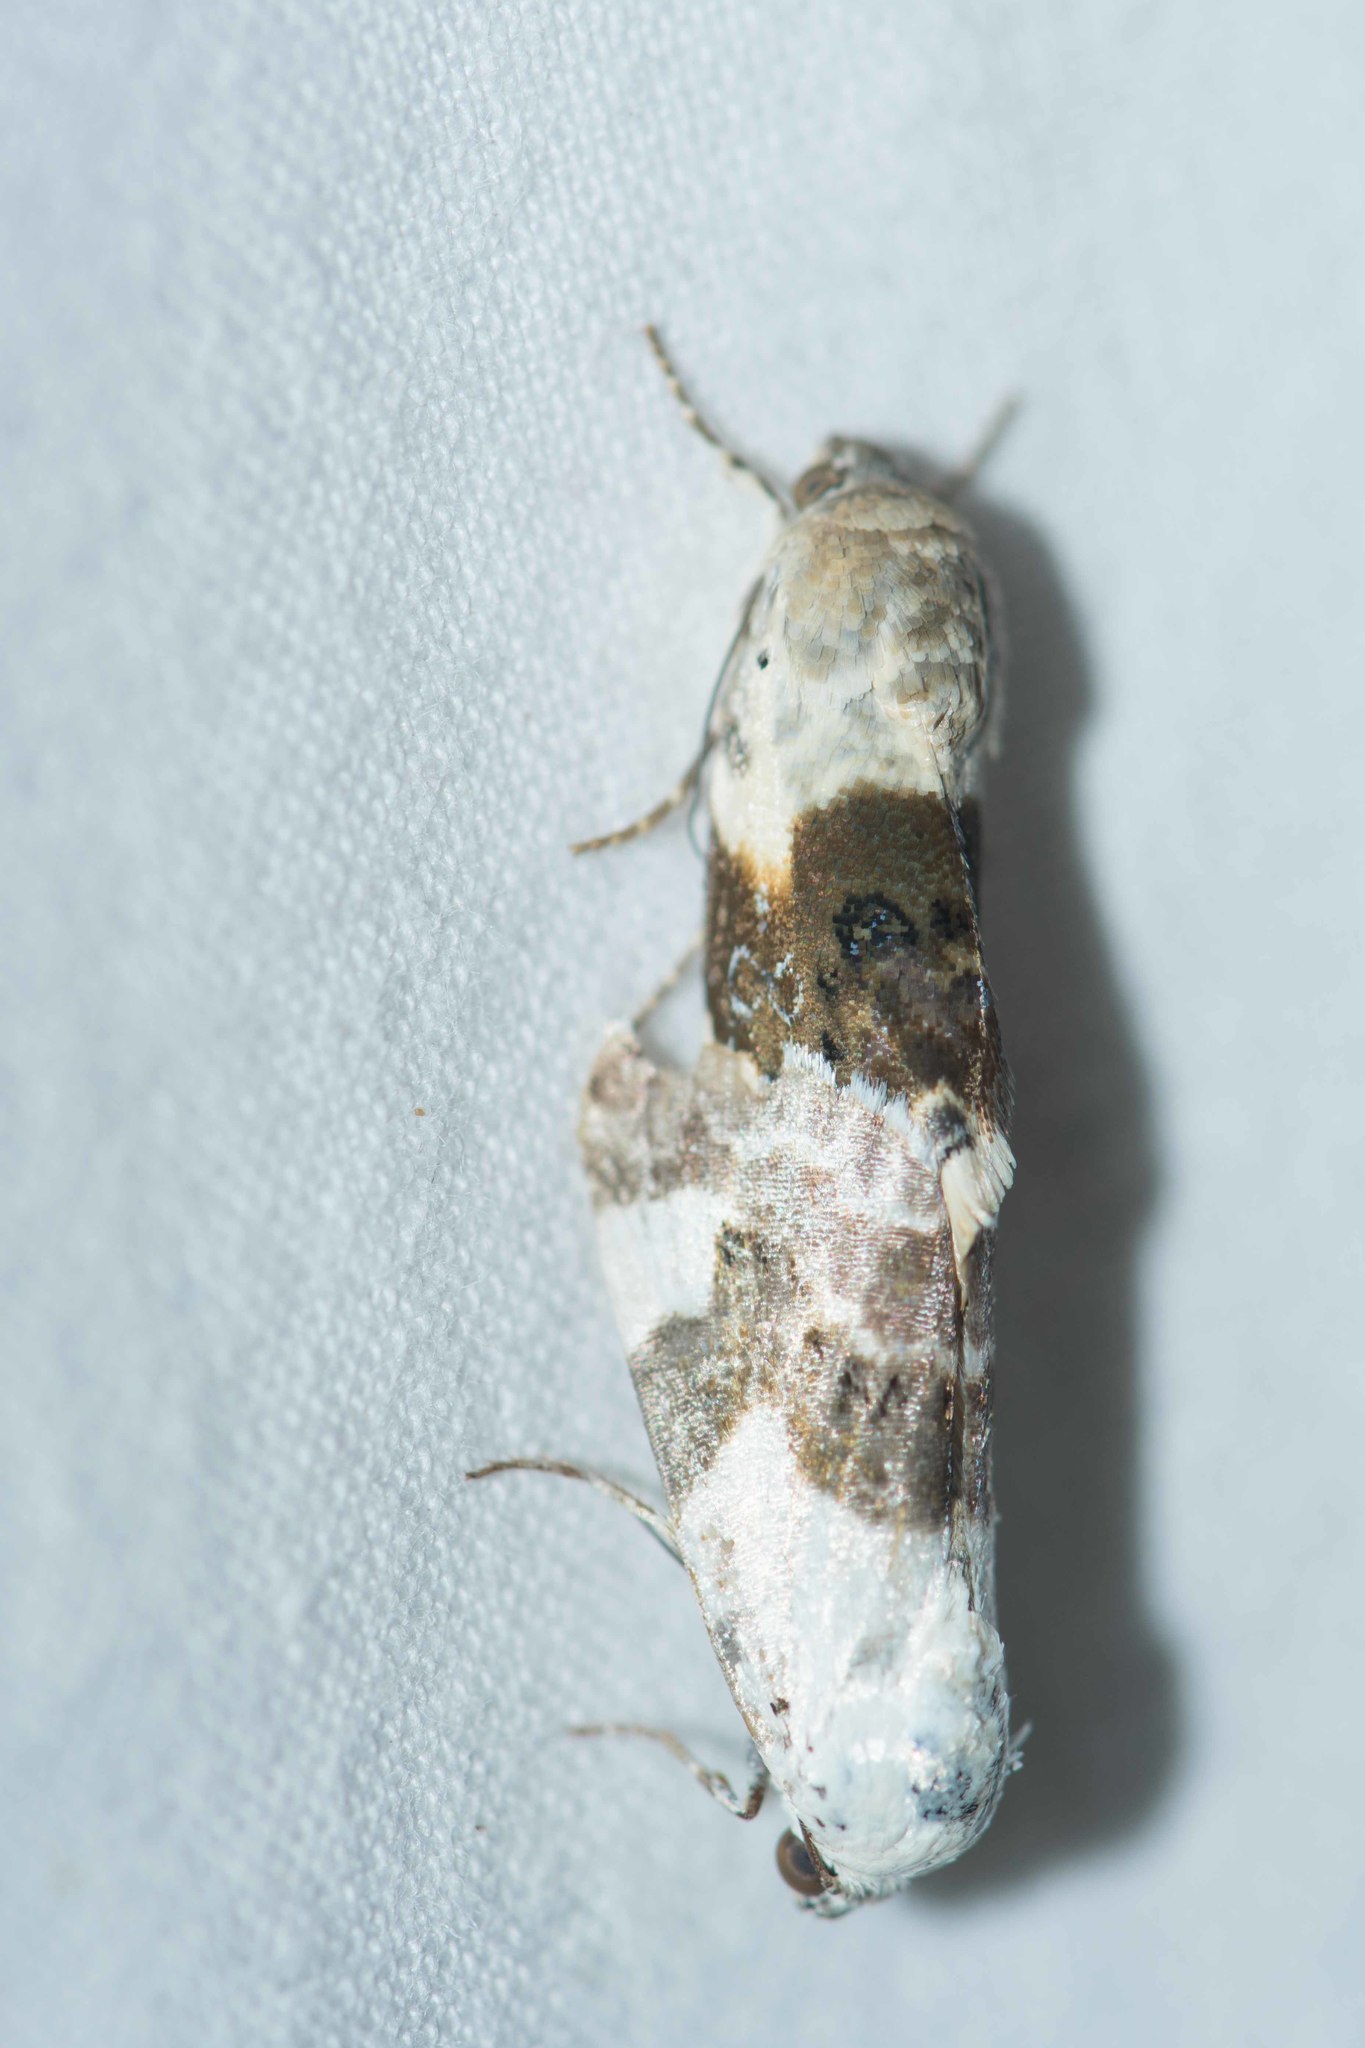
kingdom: Animalia
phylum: Arthropoda
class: Insecta
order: Lepidoptera
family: Noctuidae
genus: Acontia
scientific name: Acontia lucida
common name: Pale shoulder
